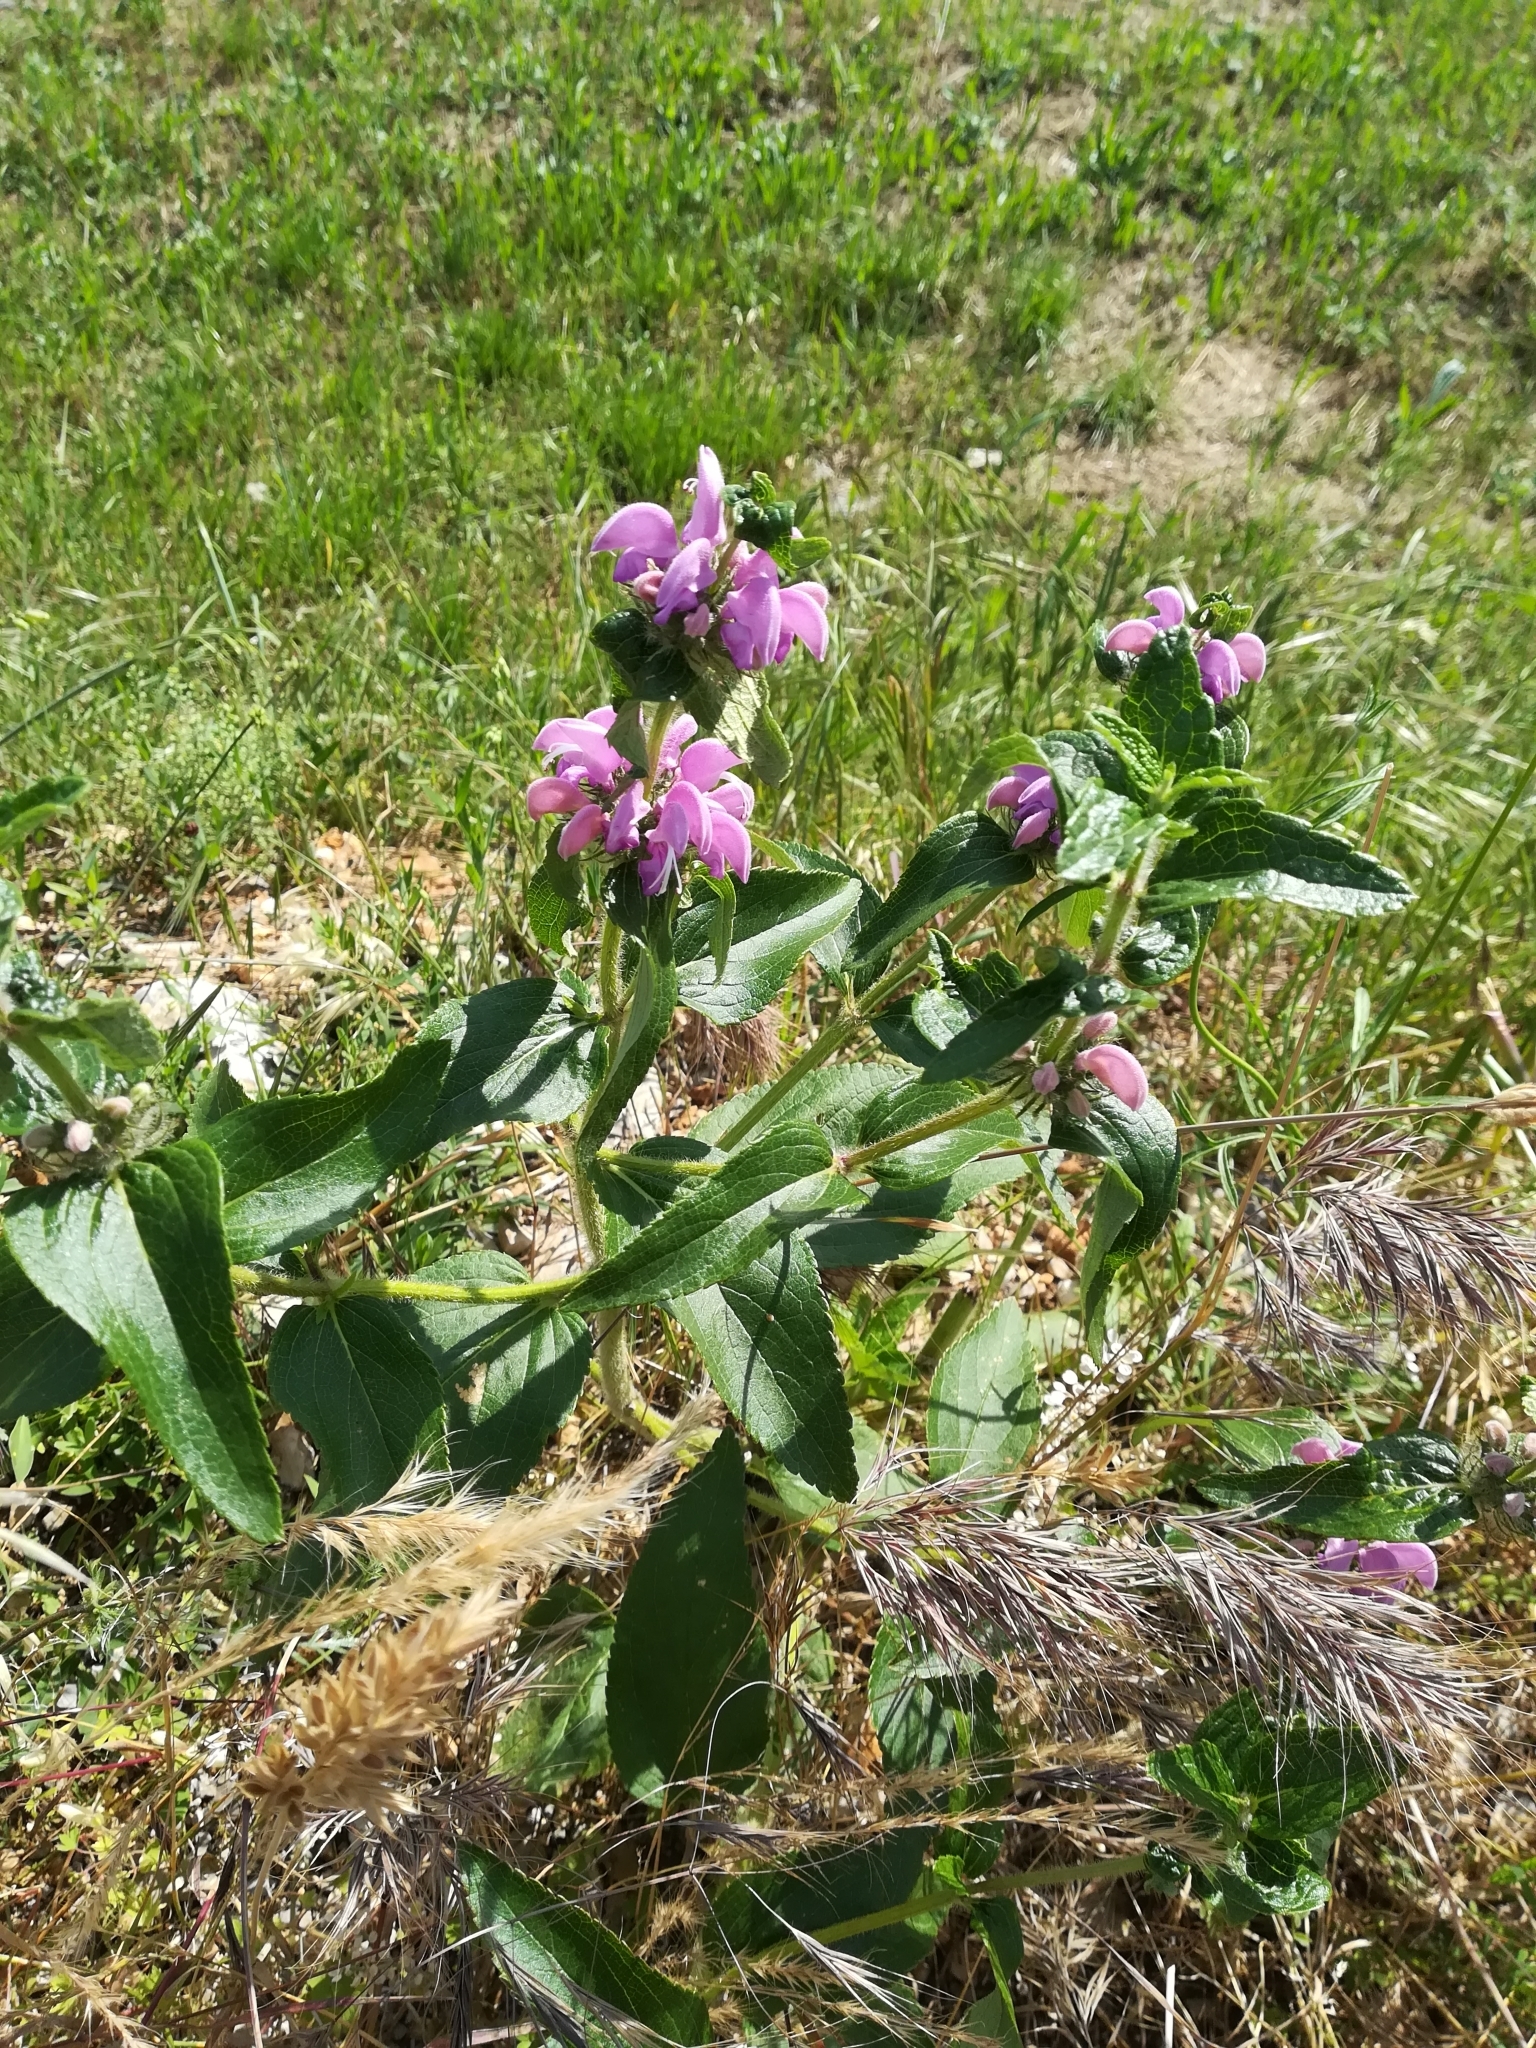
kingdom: Plantae
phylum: Tracheophyta
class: Magnoliopsida
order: Lamiales
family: Lamiaceae
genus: Phlomis
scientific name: Phlomis herba-venti
